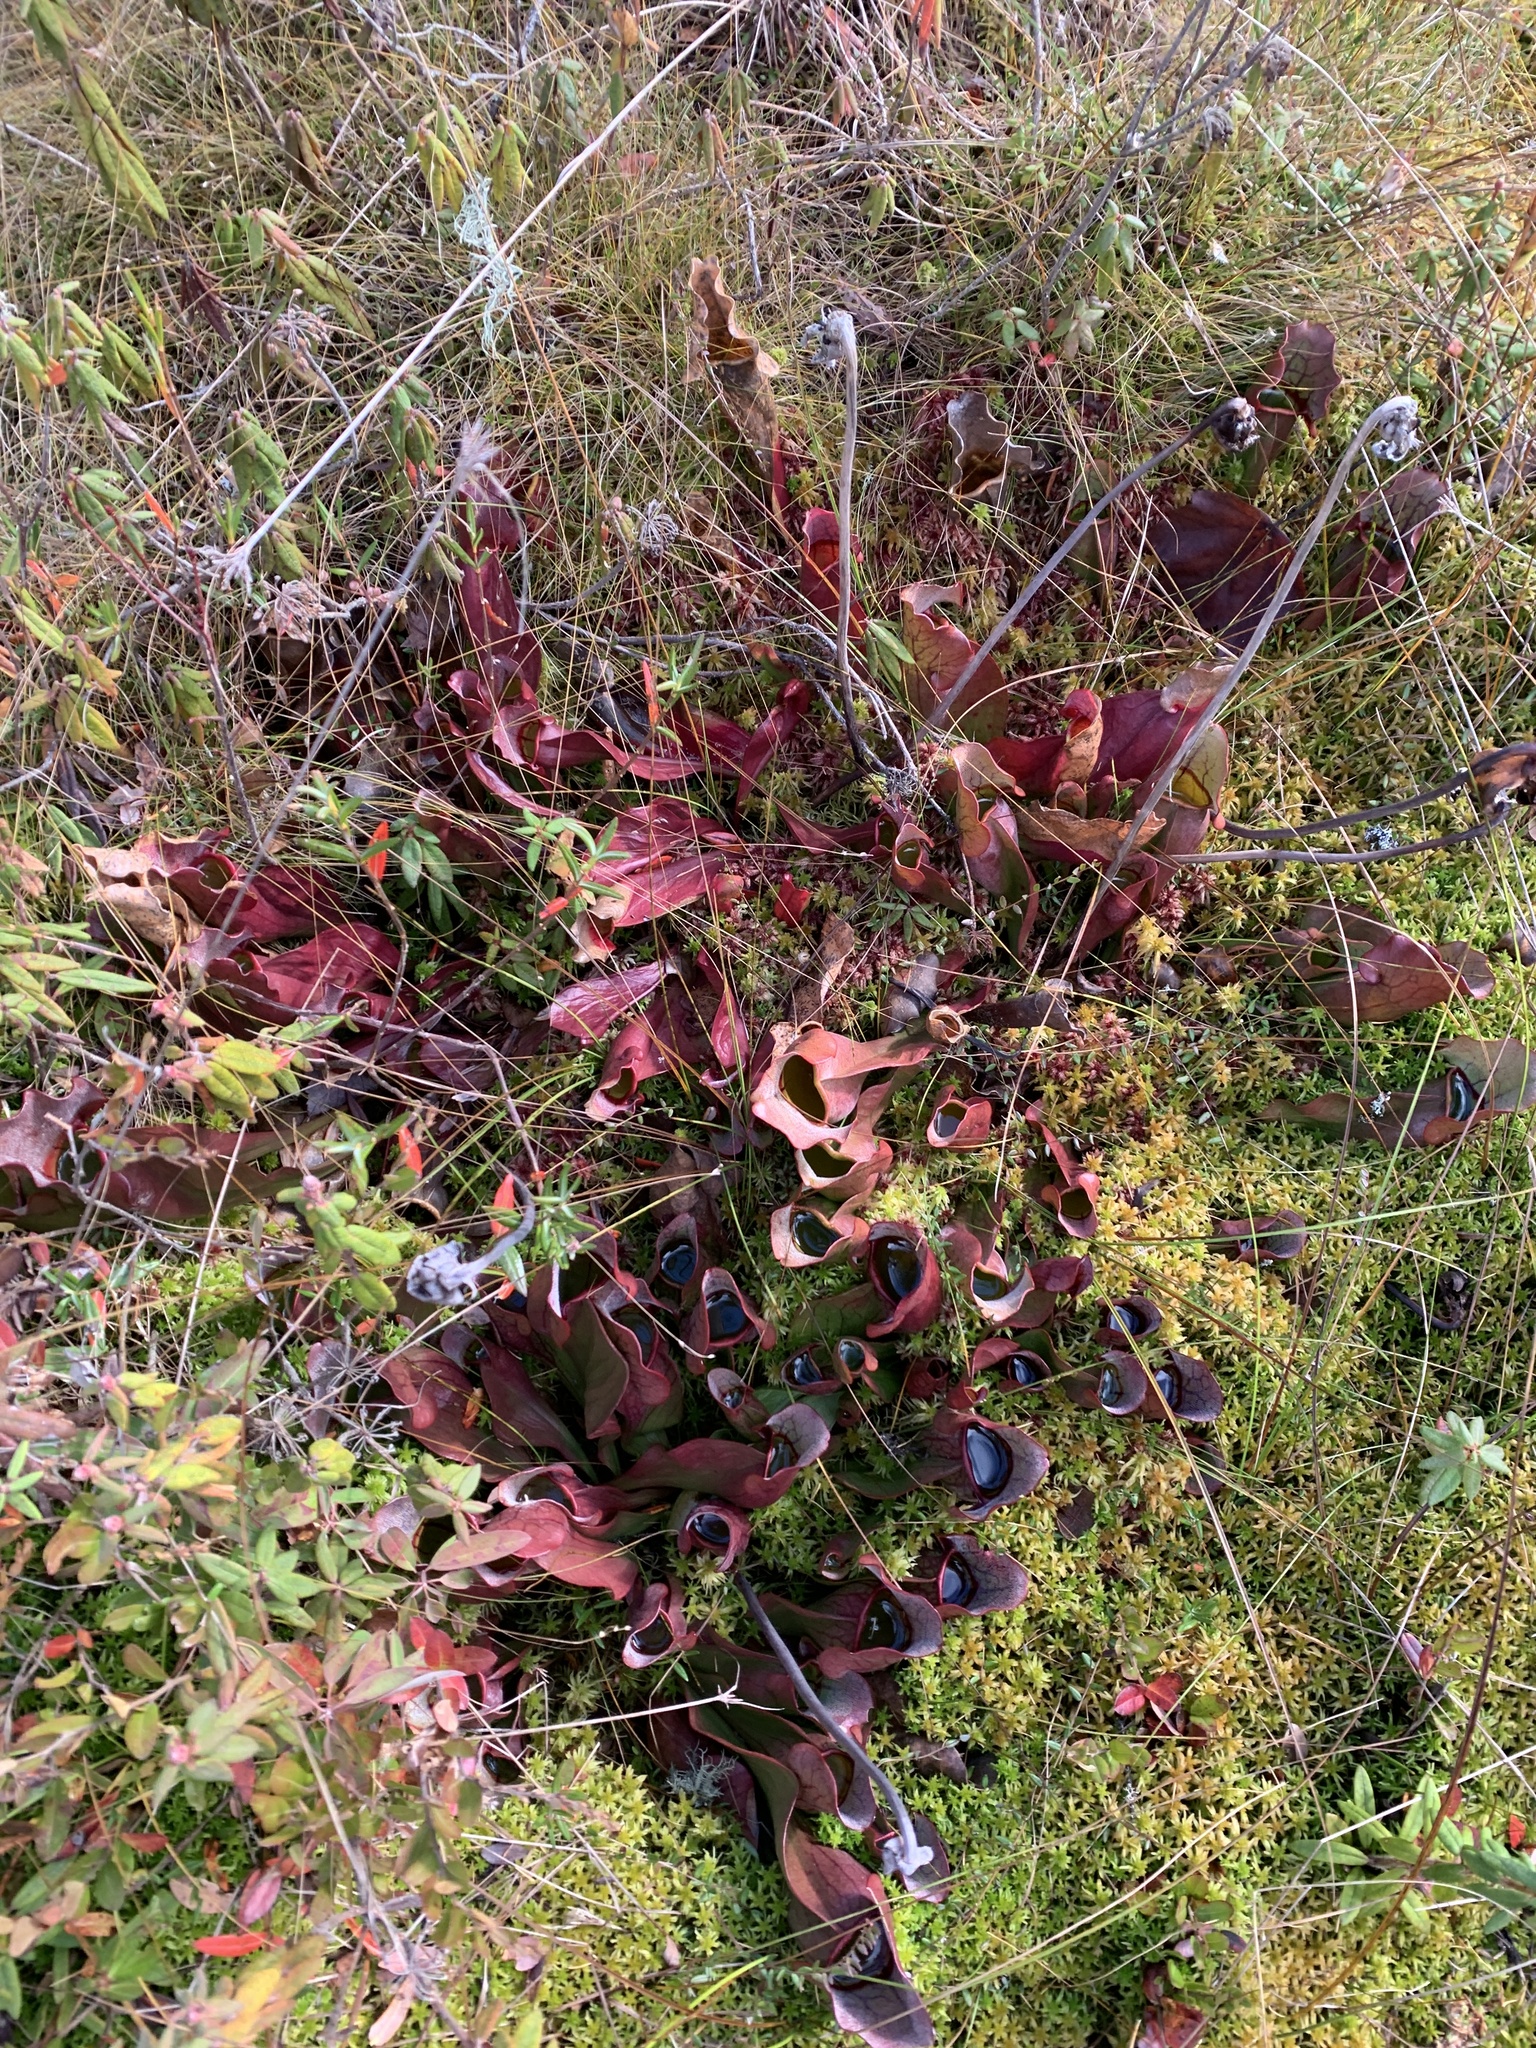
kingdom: Plantae
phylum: Tracheophyta
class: Magnoliopsida
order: Ericales
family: Sarraceniaceae
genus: Sarracenia
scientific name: Sarracenia purpurea
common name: Pitcherplant
